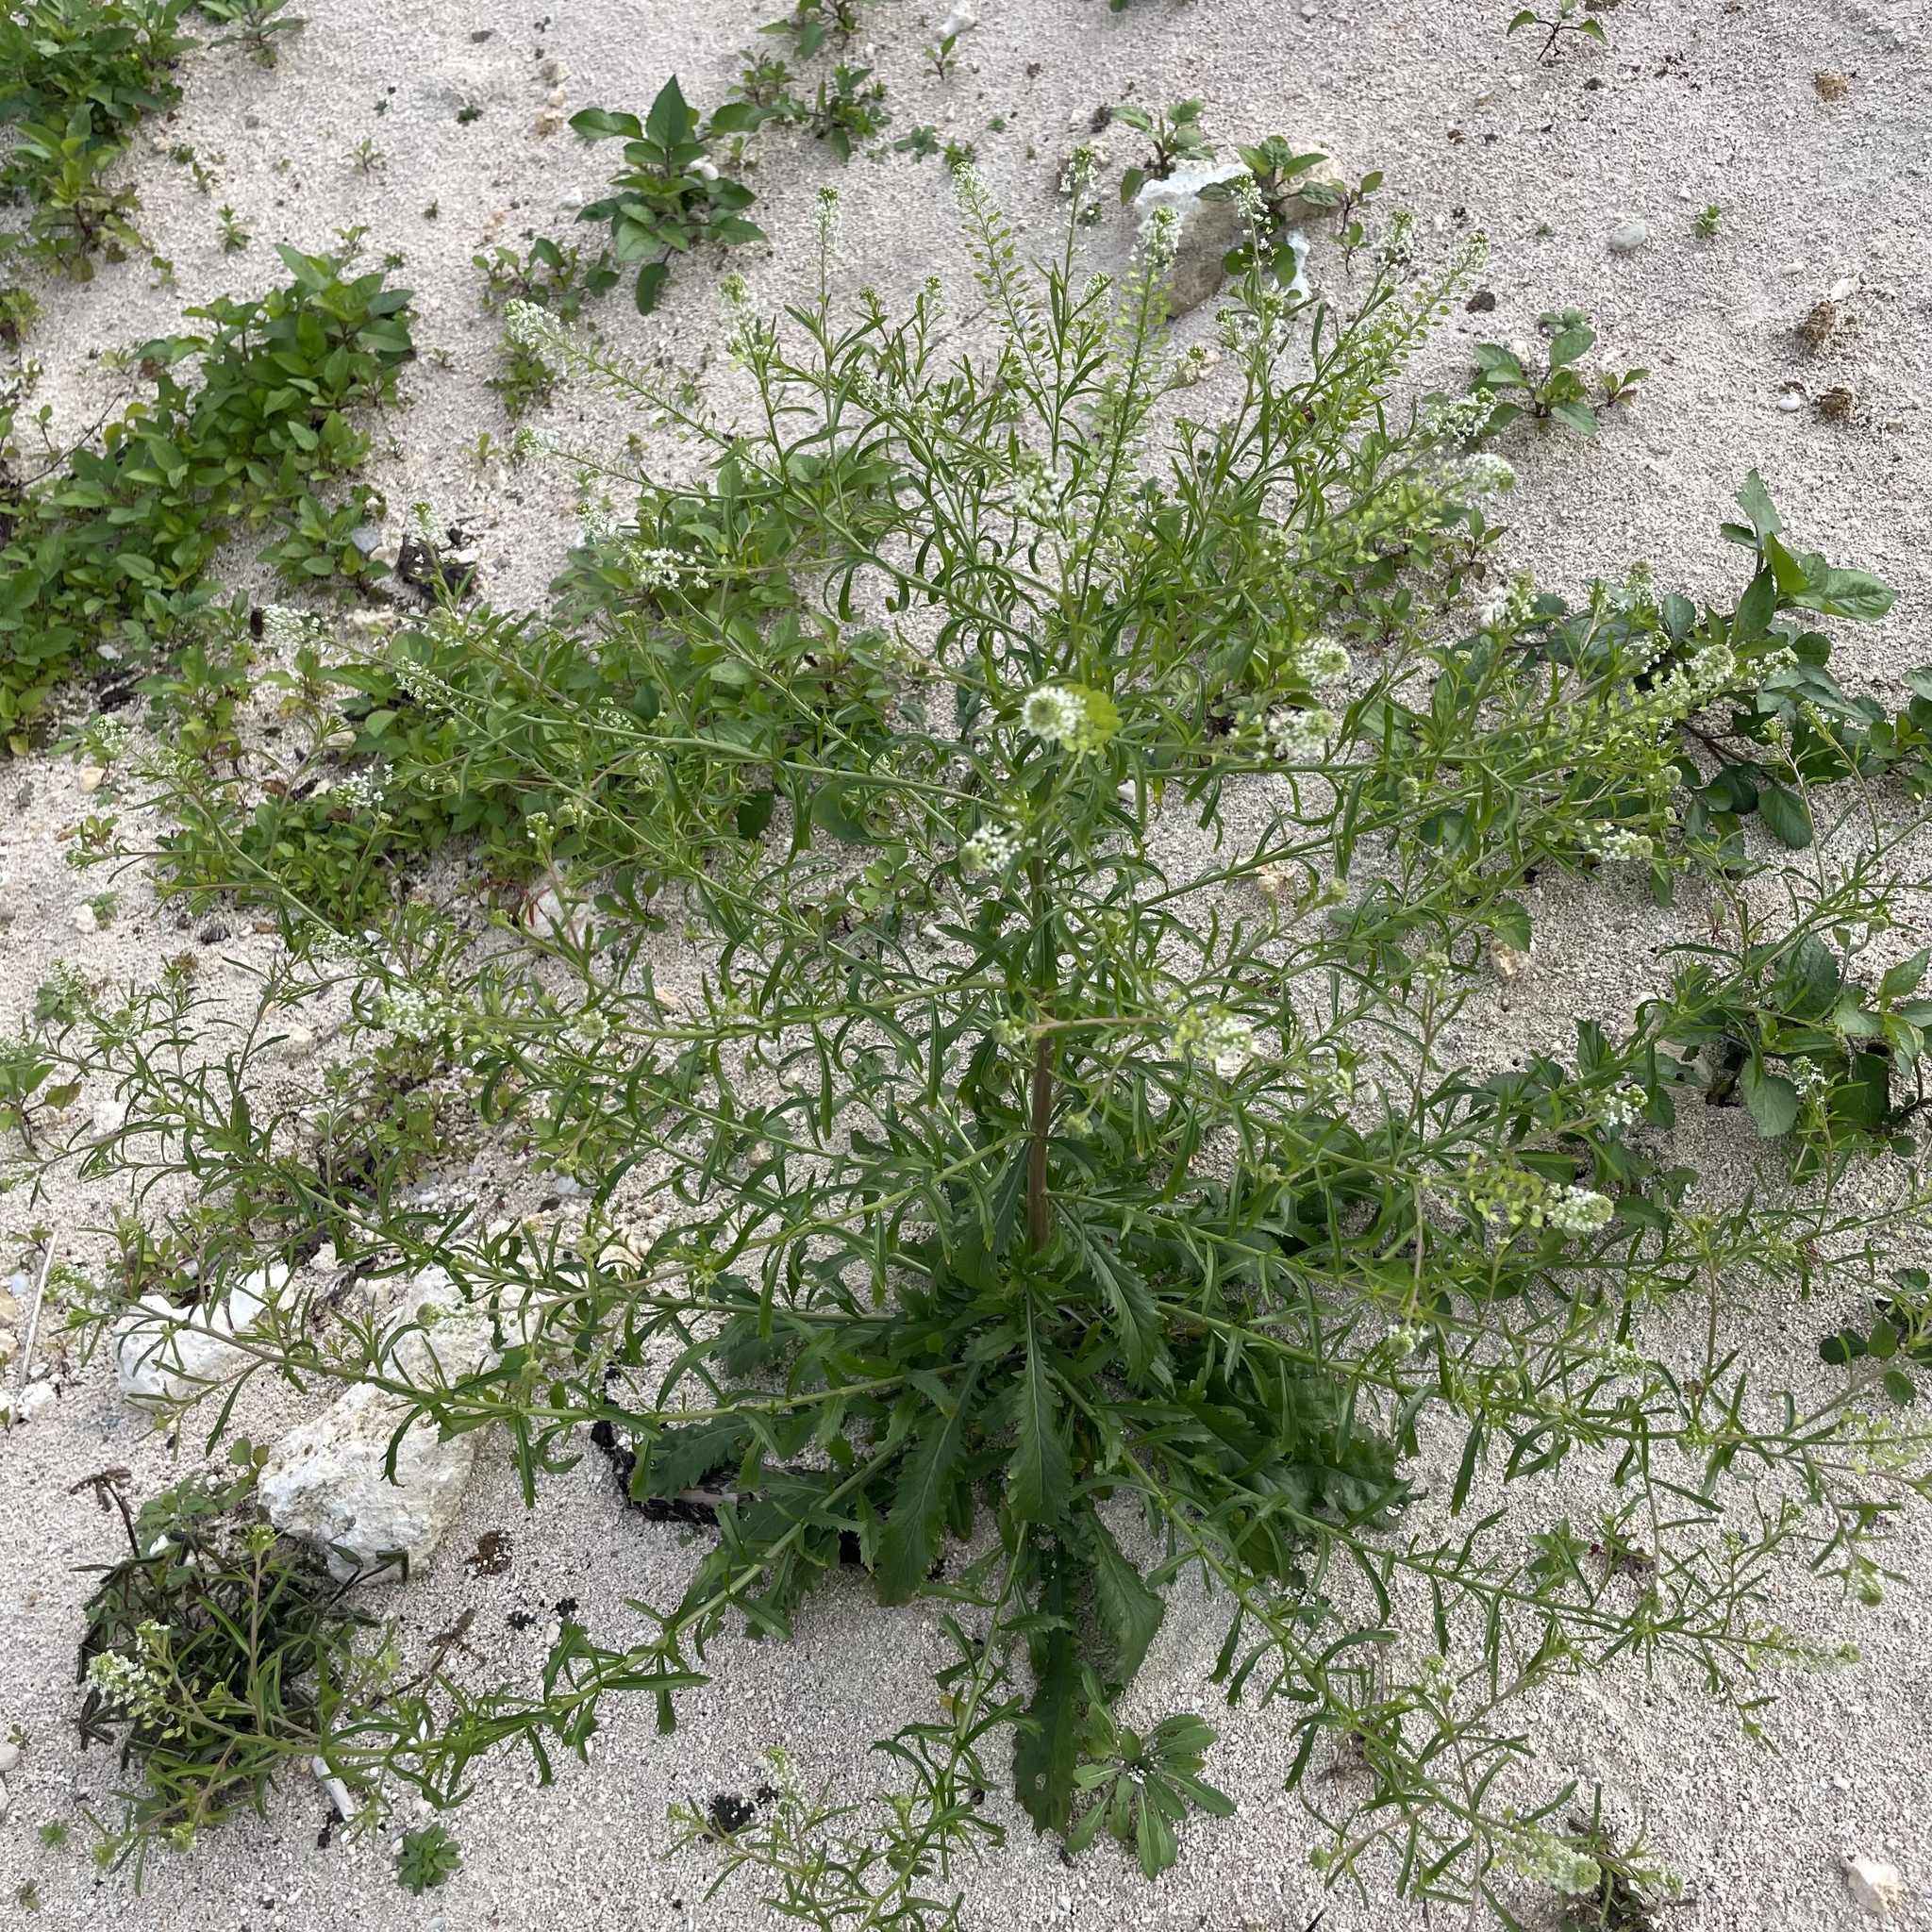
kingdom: Plantae
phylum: Tracheophyta
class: Magnoliopsida
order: Brassicales
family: Brassicaceae
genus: Lepidium
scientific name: Lepidium virginicum
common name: Least pepperwort
